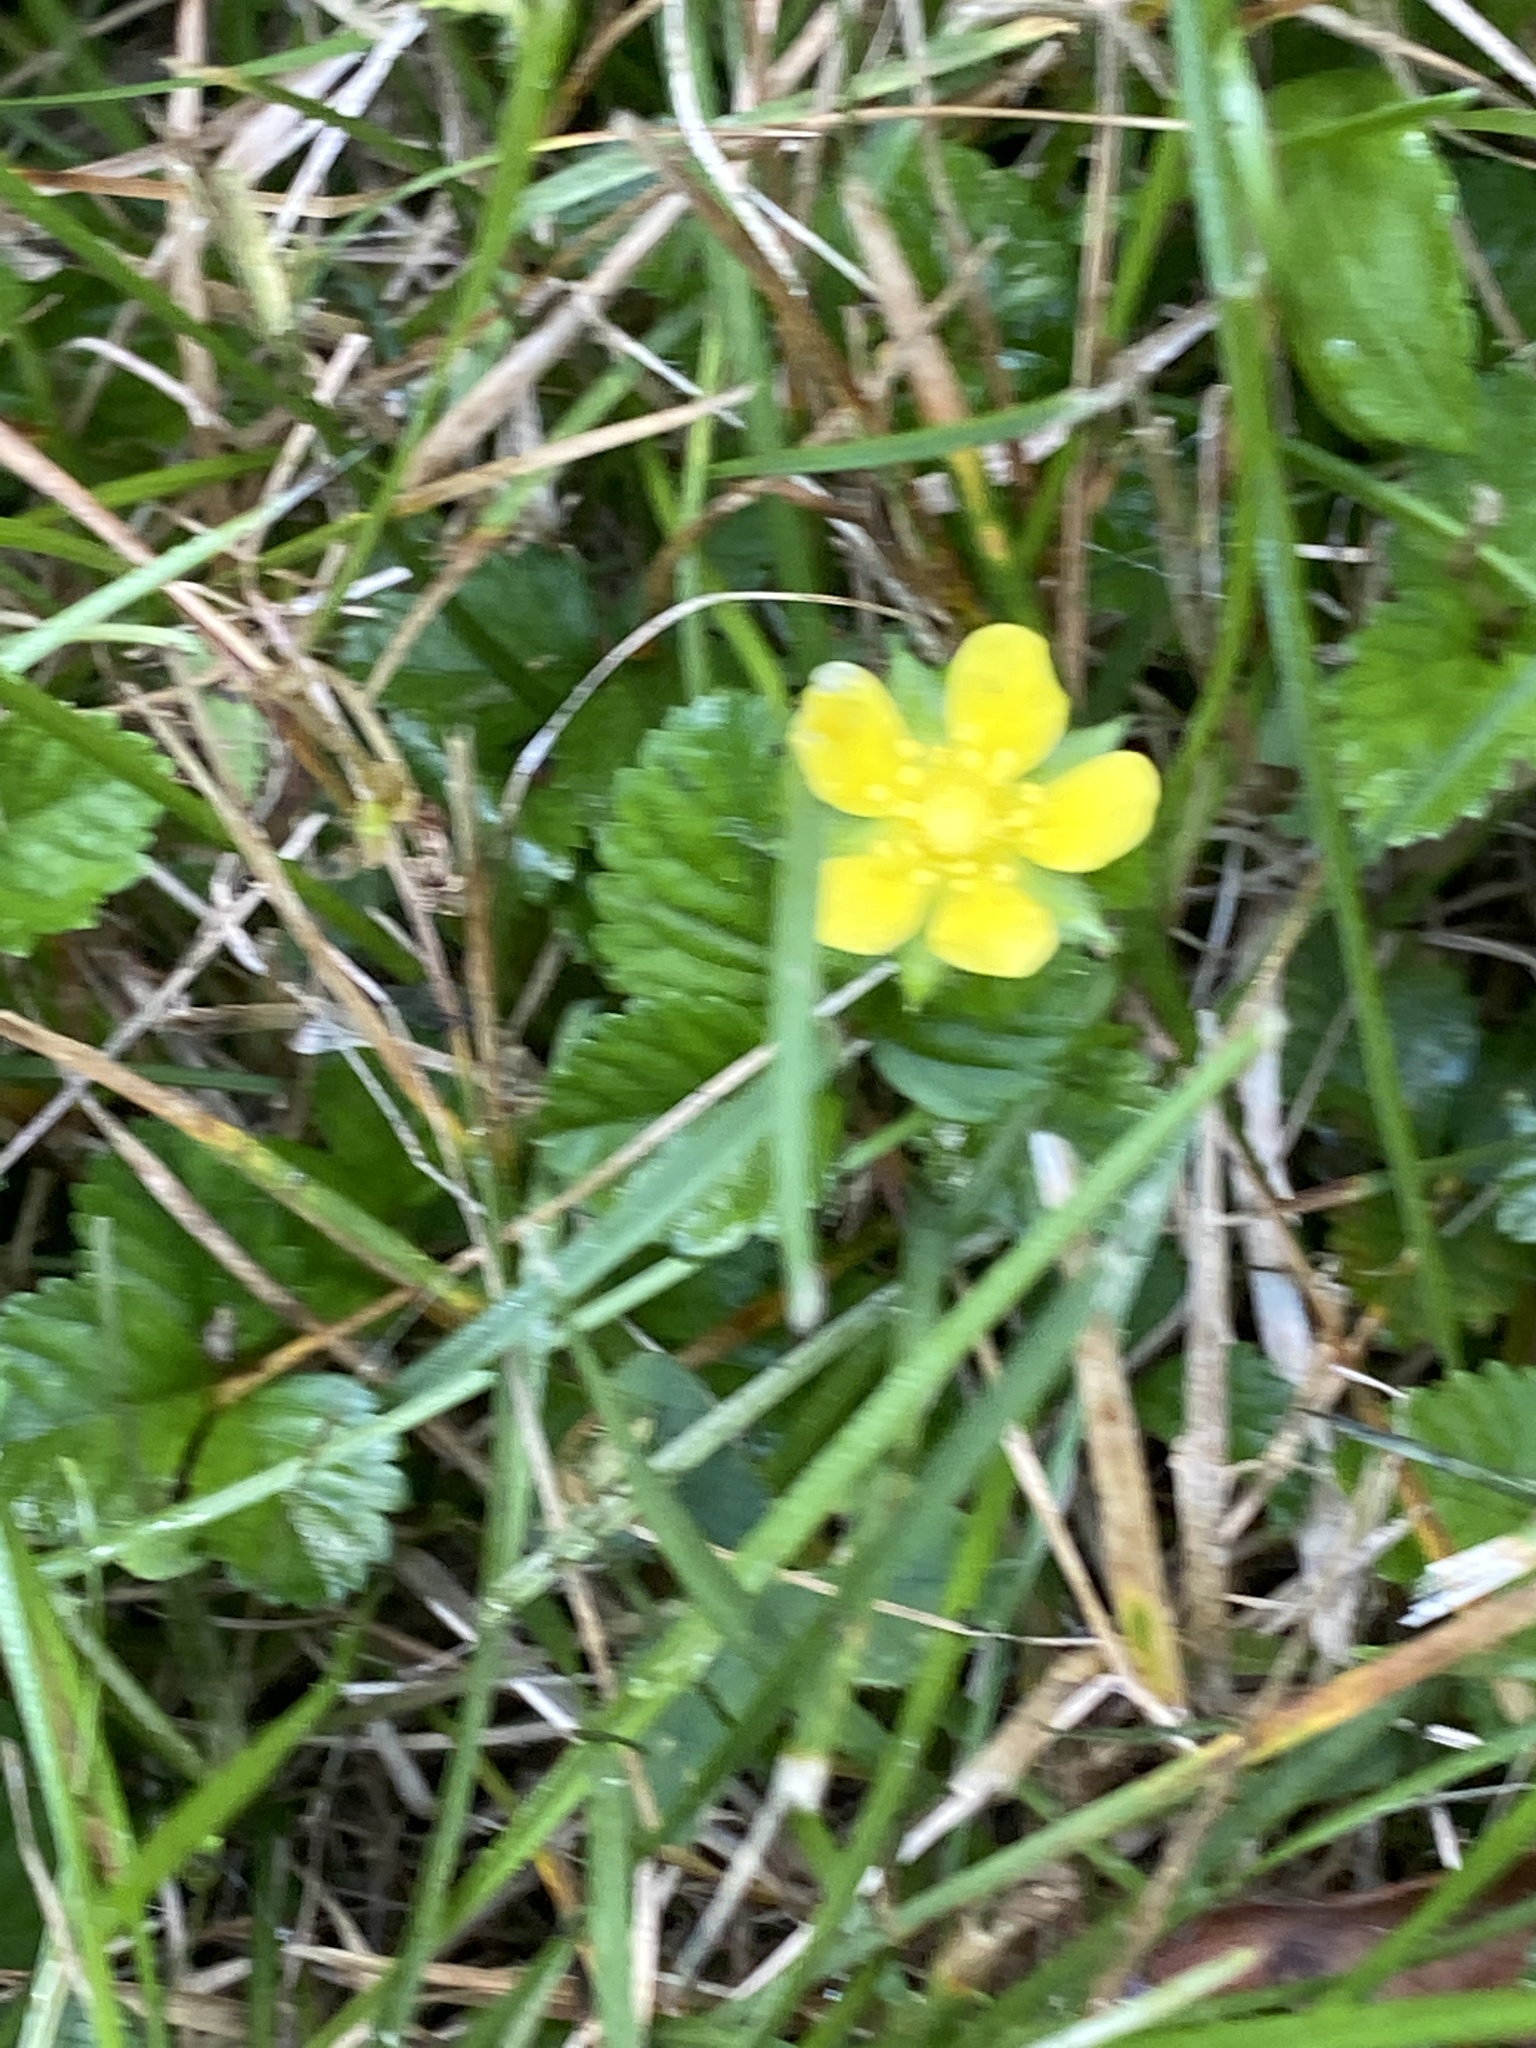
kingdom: Plantae
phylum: Tracheophyta
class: Magnoliopsida
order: Rosales
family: Rosaceae
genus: Potentilla
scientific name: Potentilla indica
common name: Yellow-flowered strawberry
